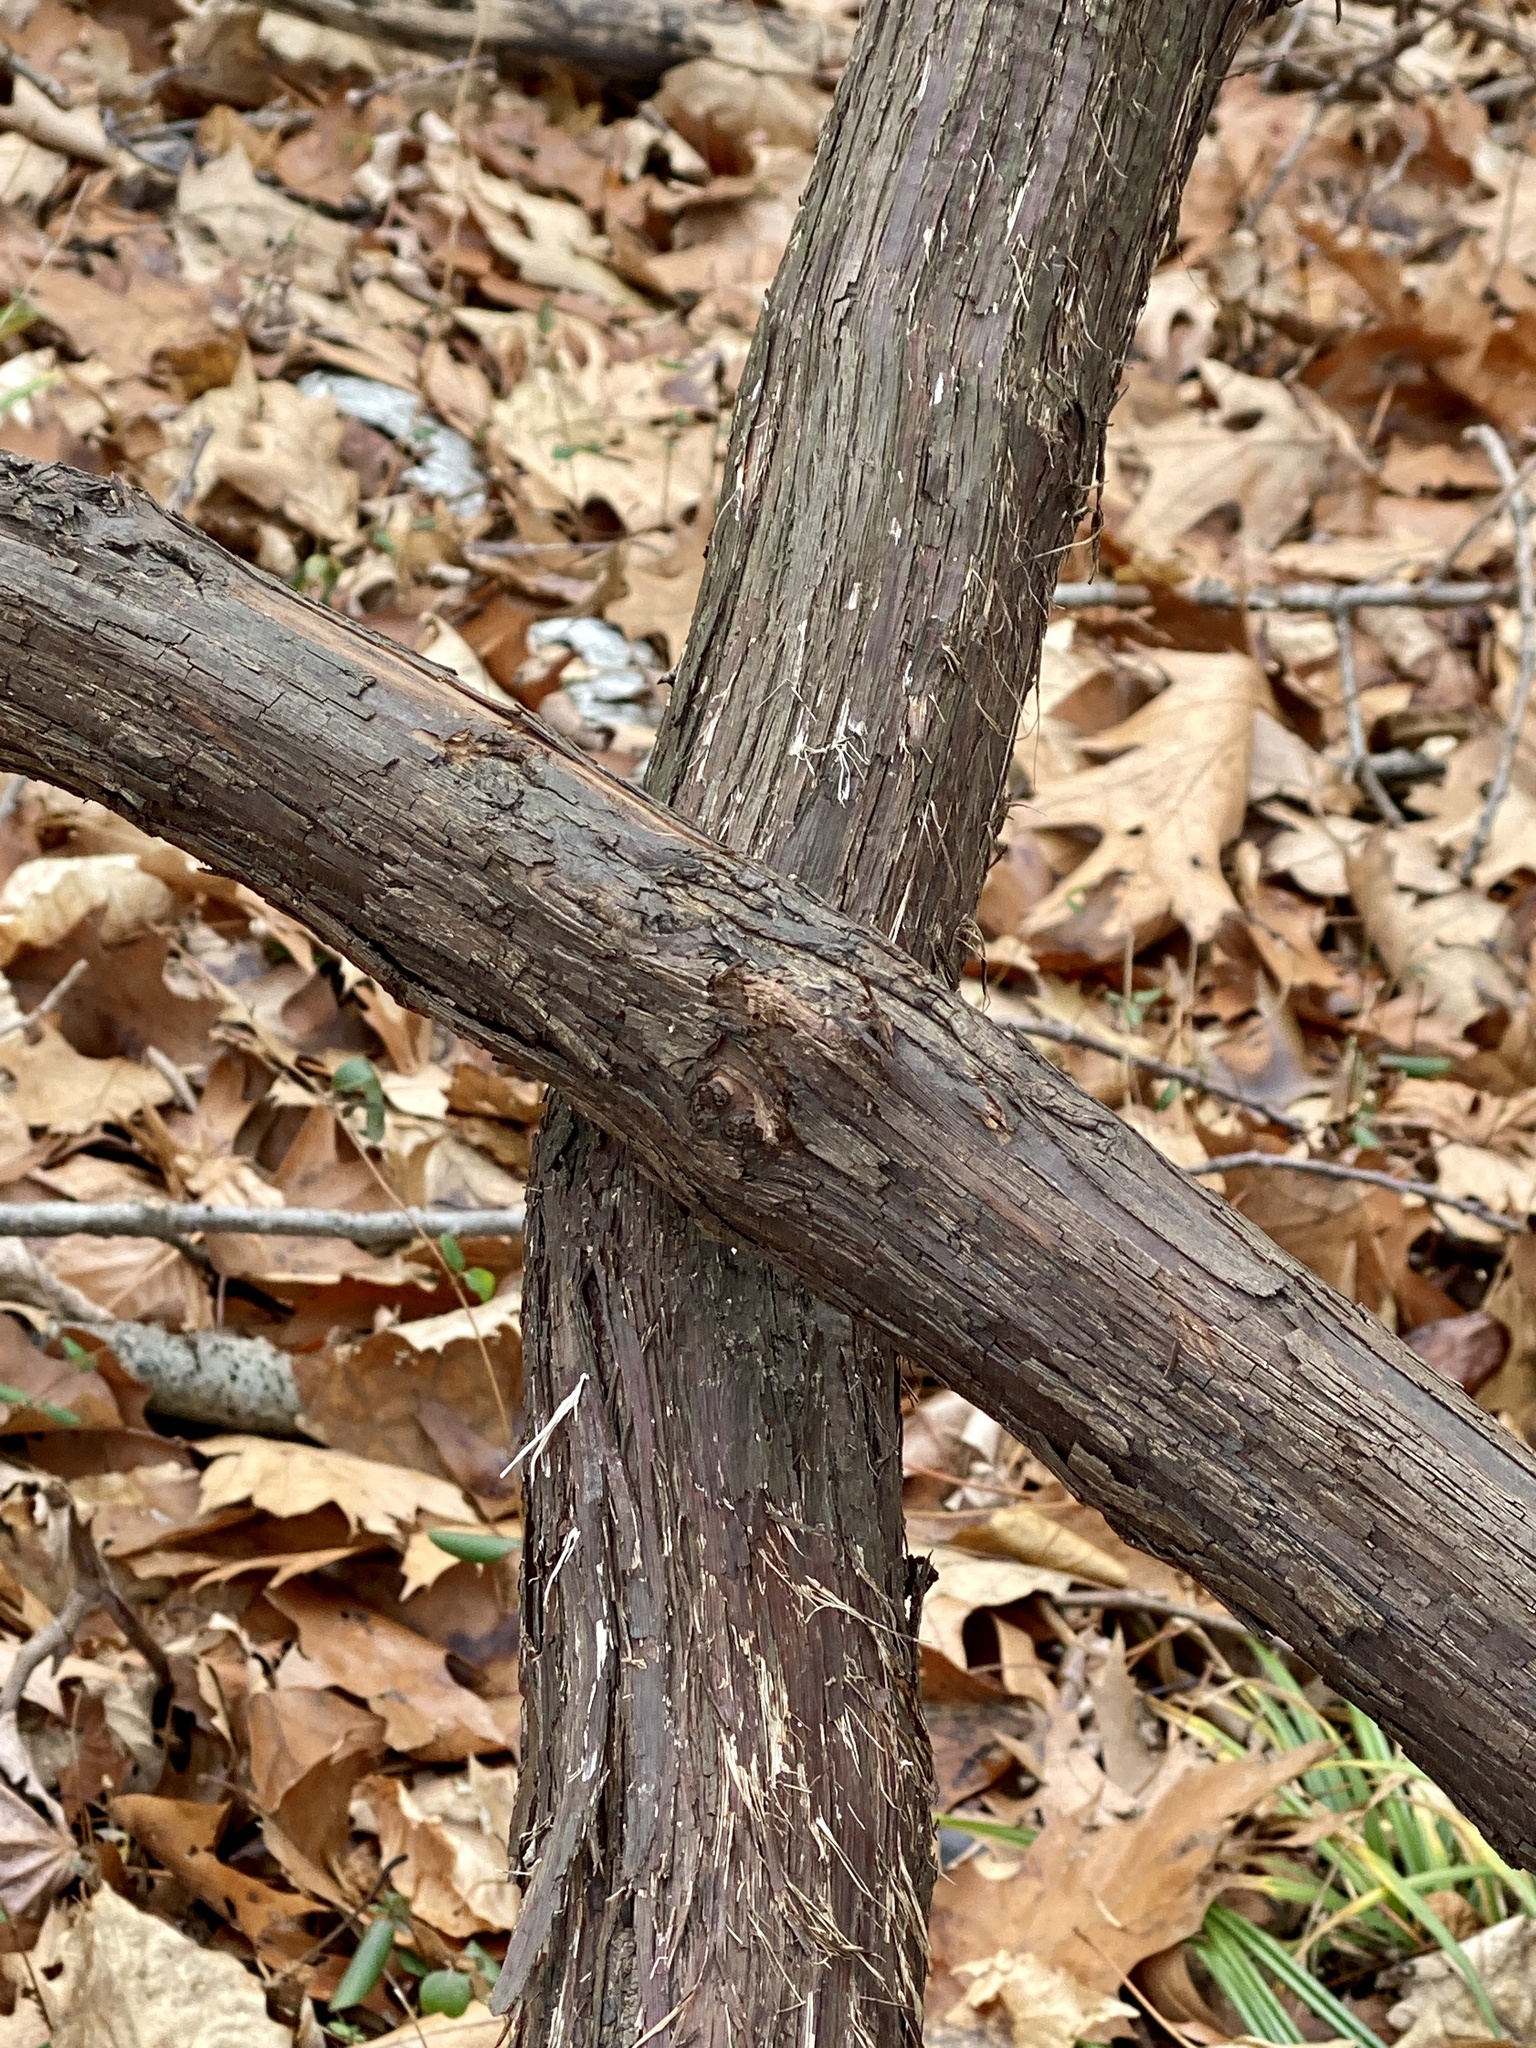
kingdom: Plantae
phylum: Tracheophyta
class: Magnoliopsida
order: Vitales
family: Vitaceae
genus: Vitis
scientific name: Vitis
